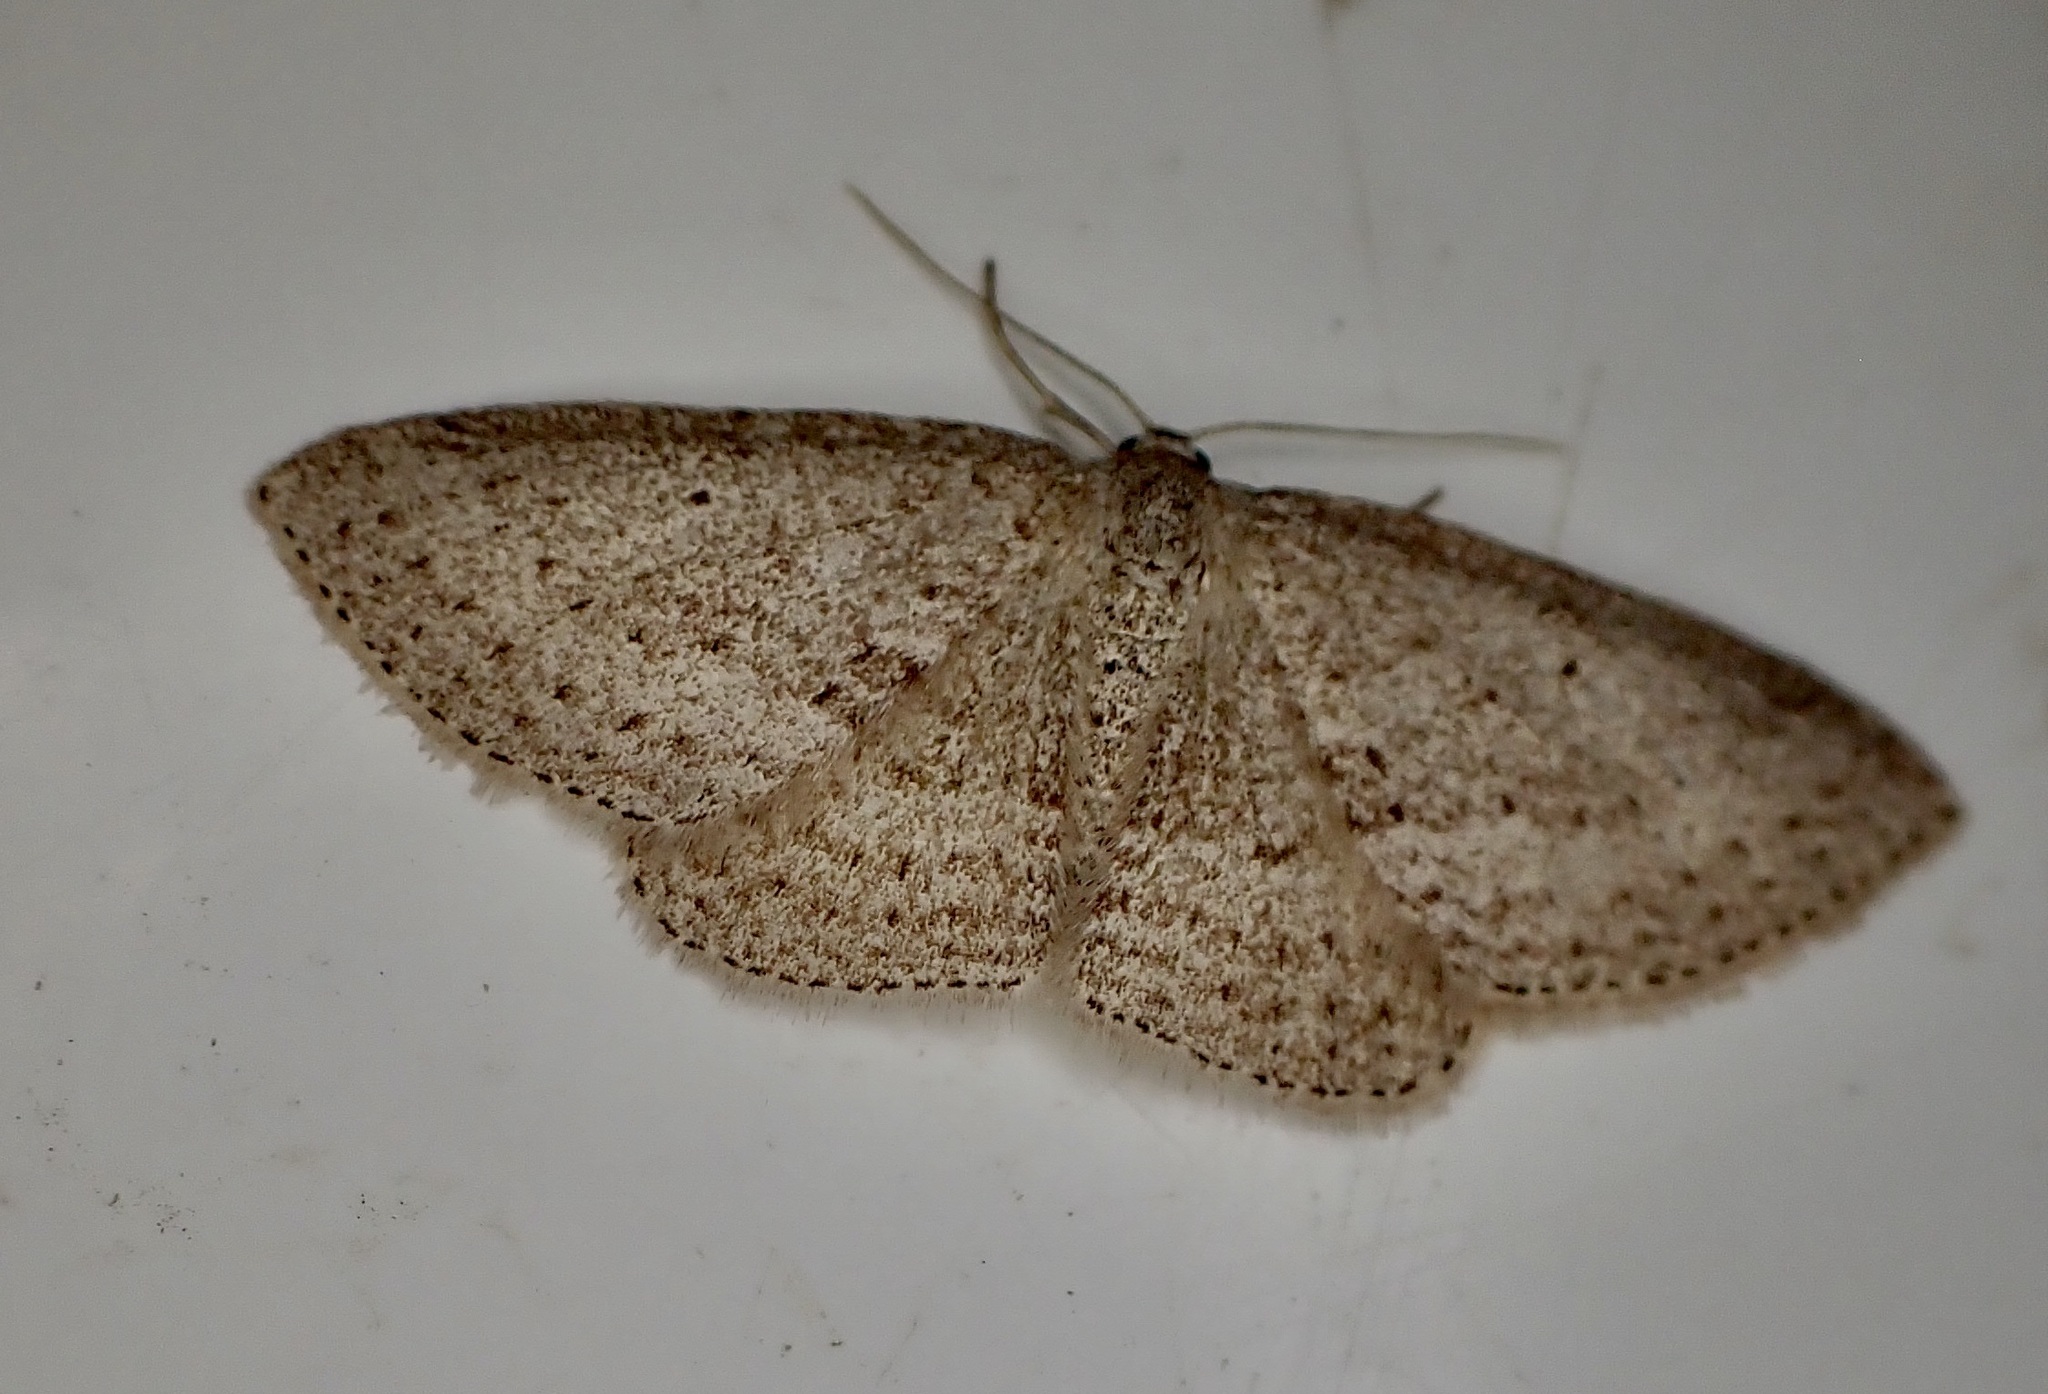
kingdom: Animalia
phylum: Arthropoda
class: Insecta
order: Lepidoptera
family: Geometridae
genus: Poecilasthena
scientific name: Poecilasthena schistaria
